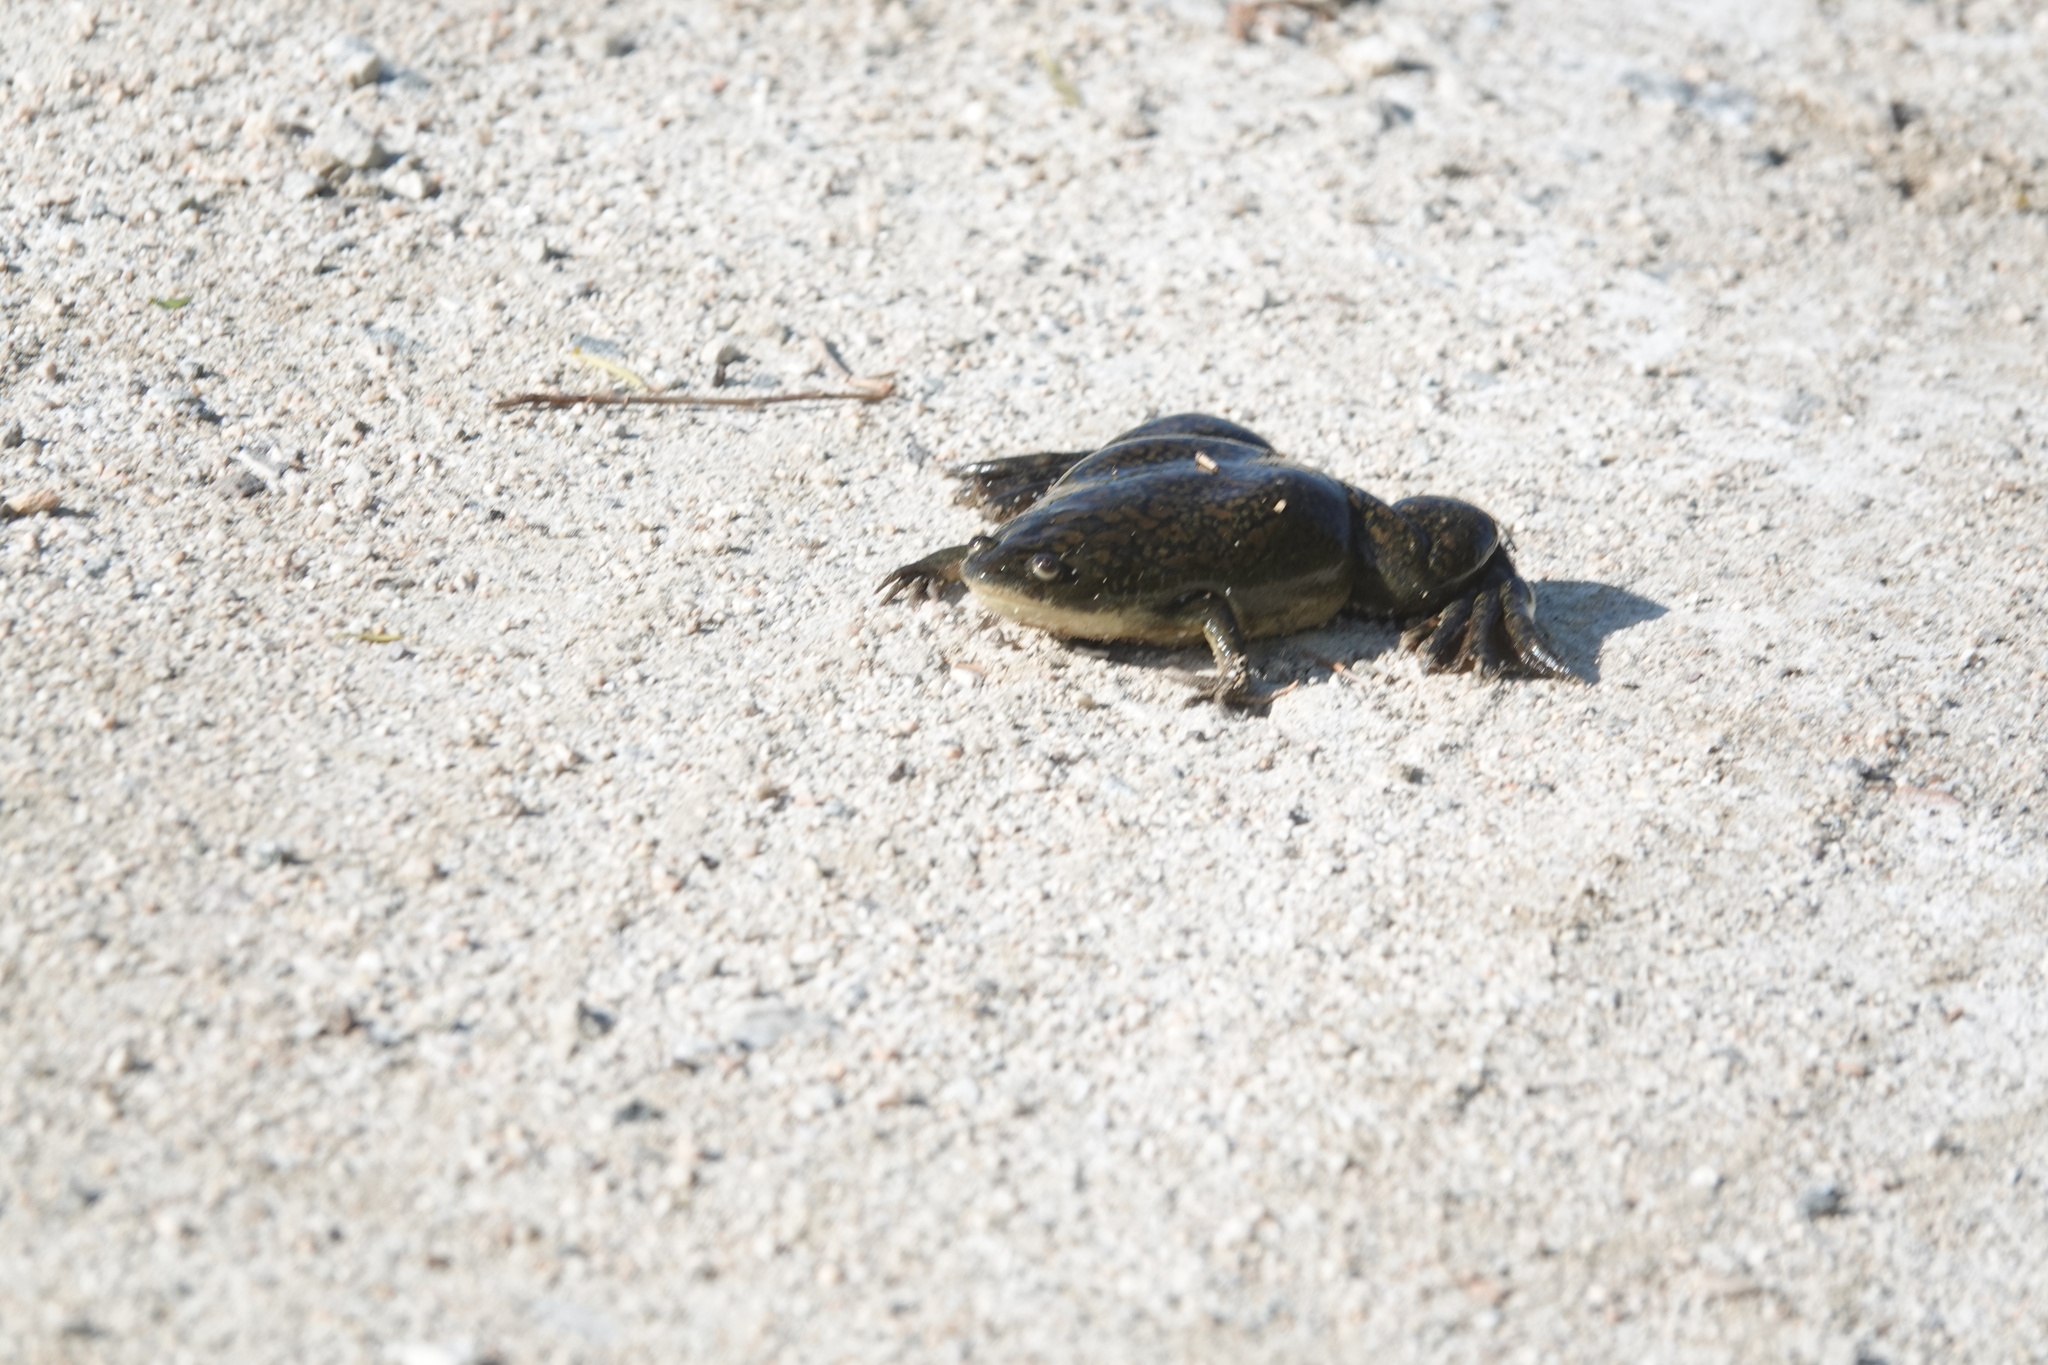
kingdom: Animalia
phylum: Chordata
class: Amphibia
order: Anura
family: Pipidae
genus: Xenopus
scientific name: Xenopus laevis
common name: African clawed frog
